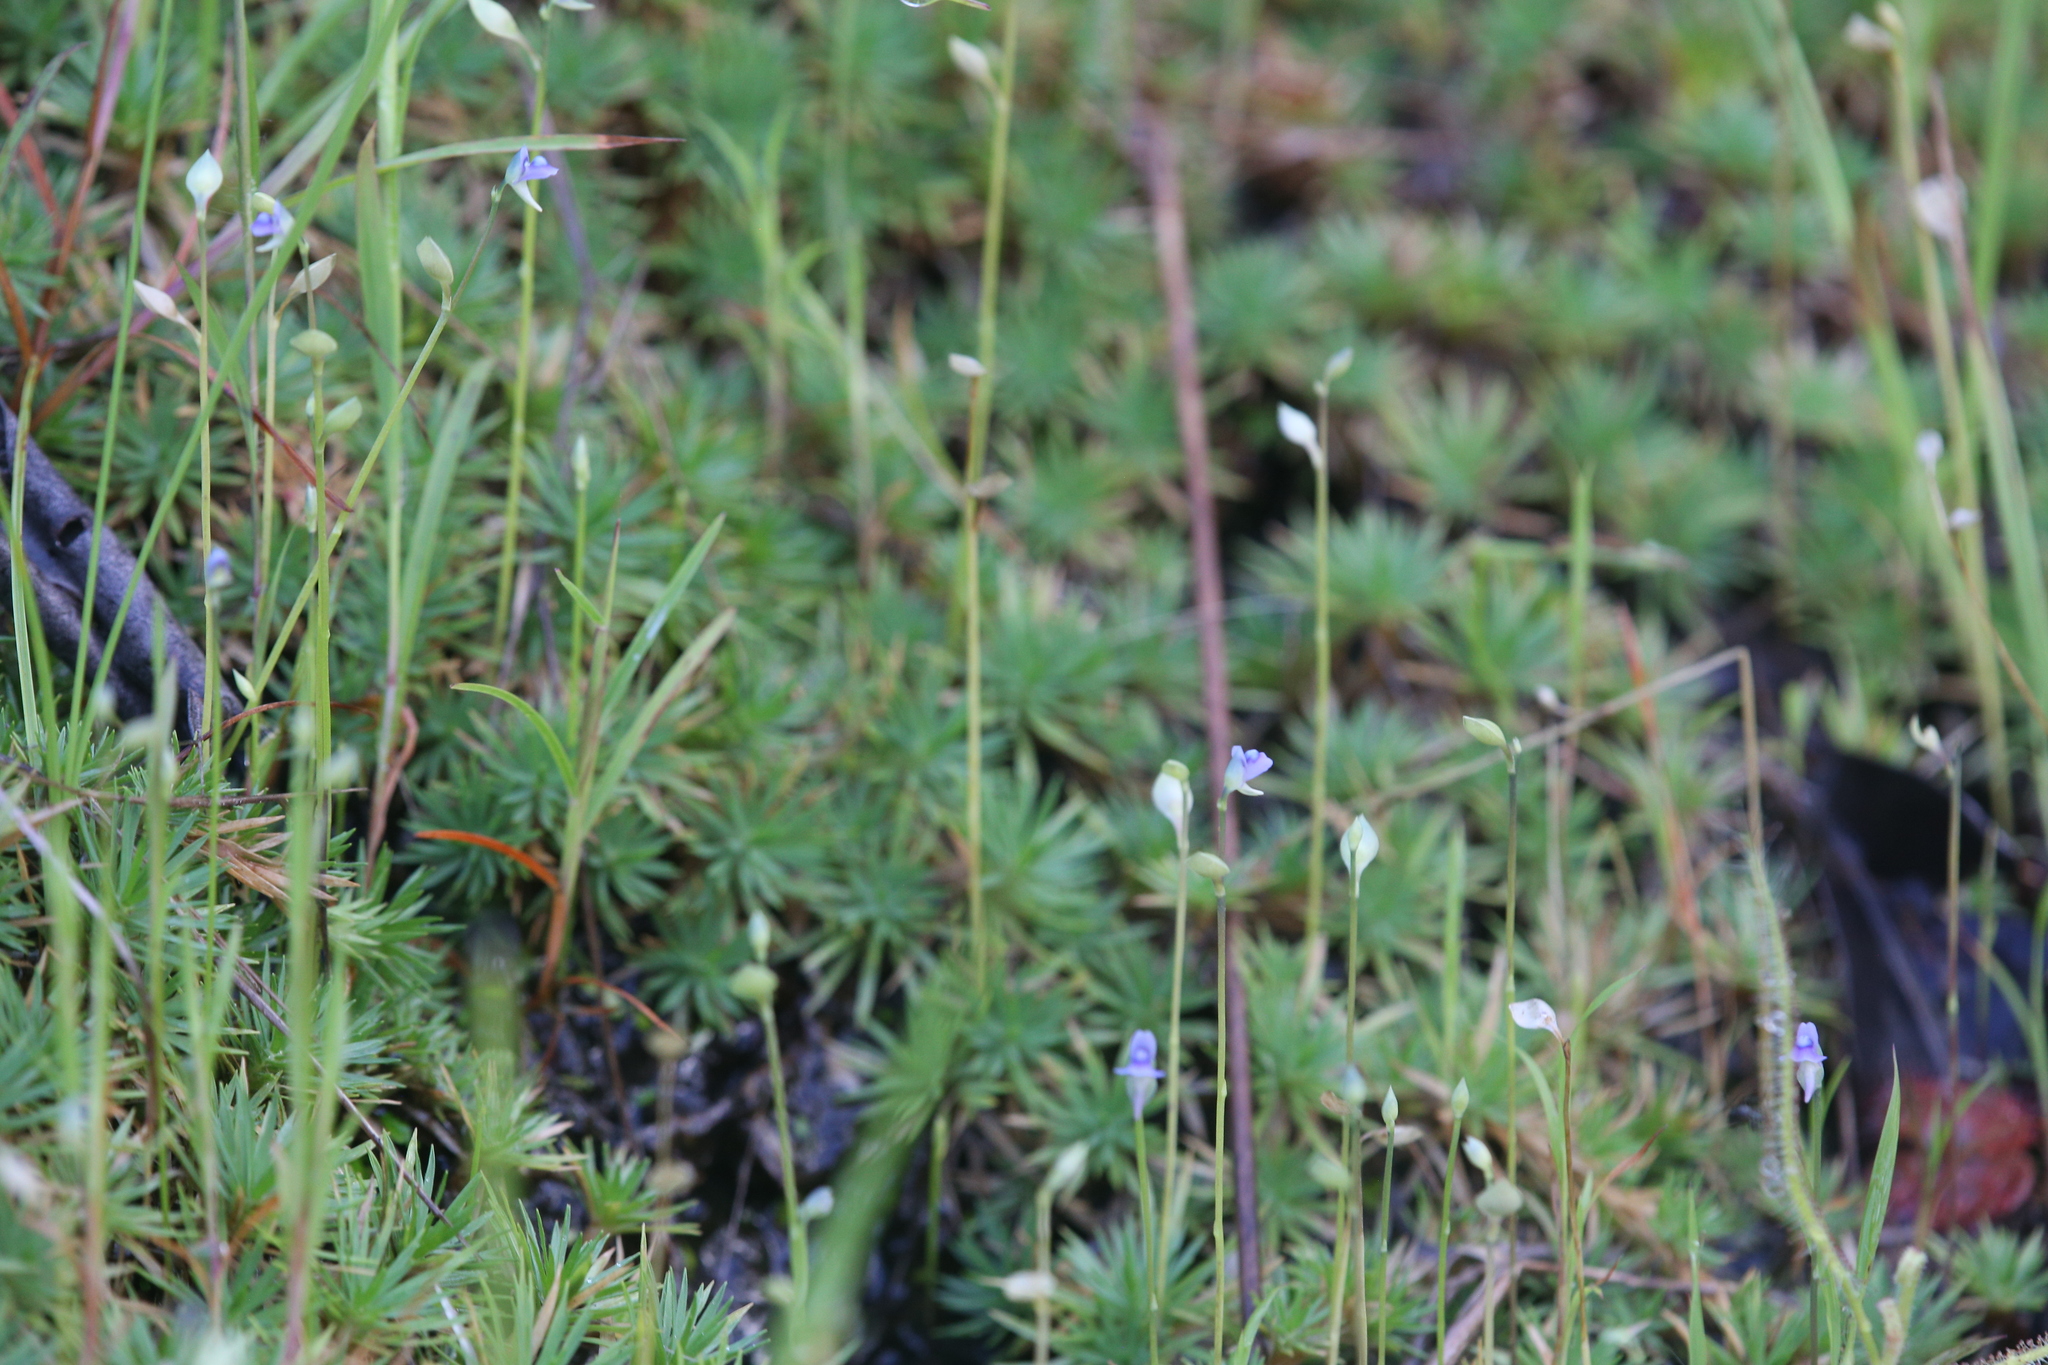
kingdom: Plantae
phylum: Tracheophyta
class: Magnoliopsida
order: Lamiales
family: Lentibulariaceae
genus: Utricularia
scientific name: Utricularia uliginosa
